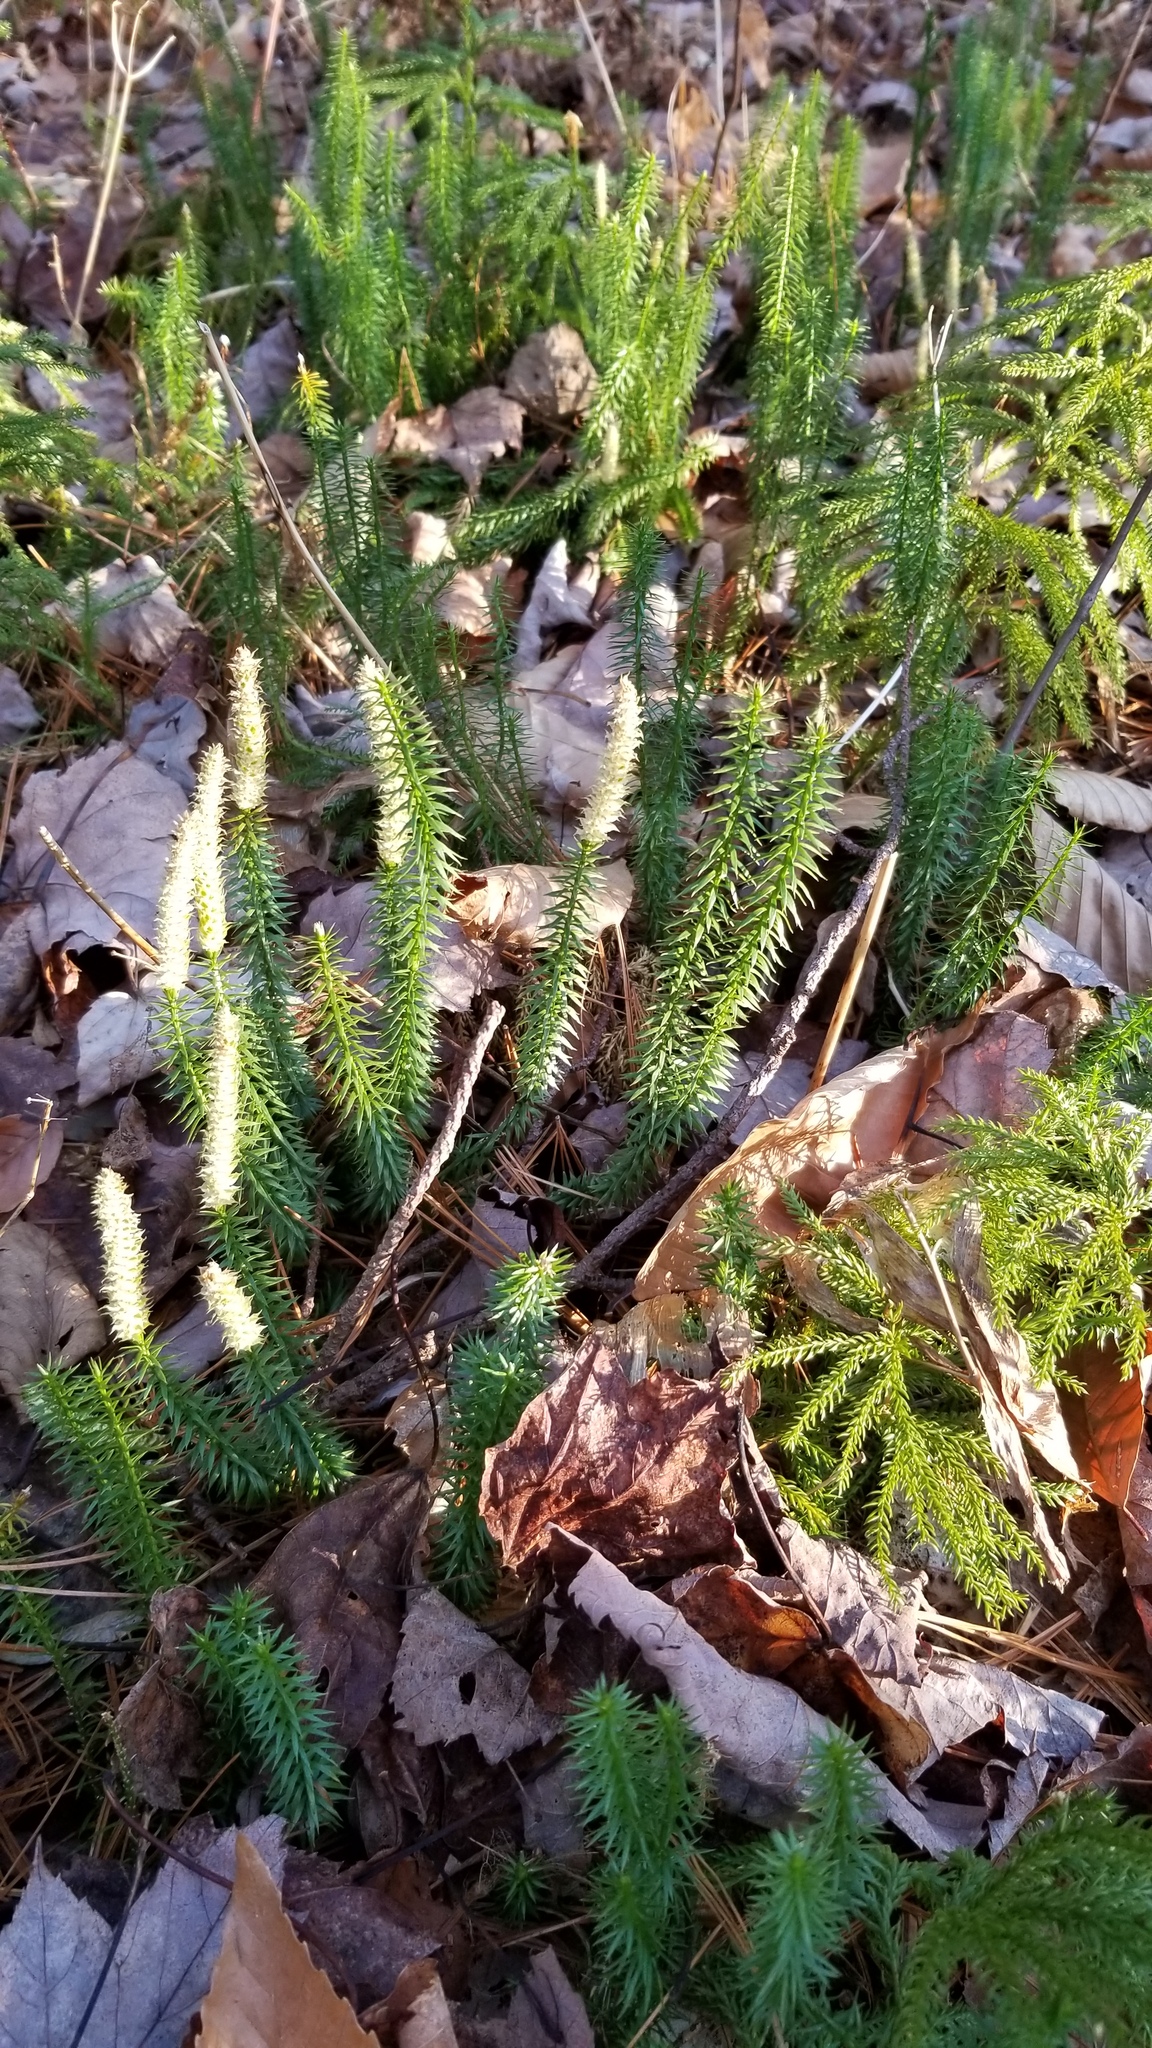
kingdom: Plantae
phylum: Tracheophyta
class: Lycopodiopsida
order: Lycopodiales
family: Lycopodiaceae
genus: Spinulum
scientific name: Spinulum annotinum
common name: Interrupted club-moss
